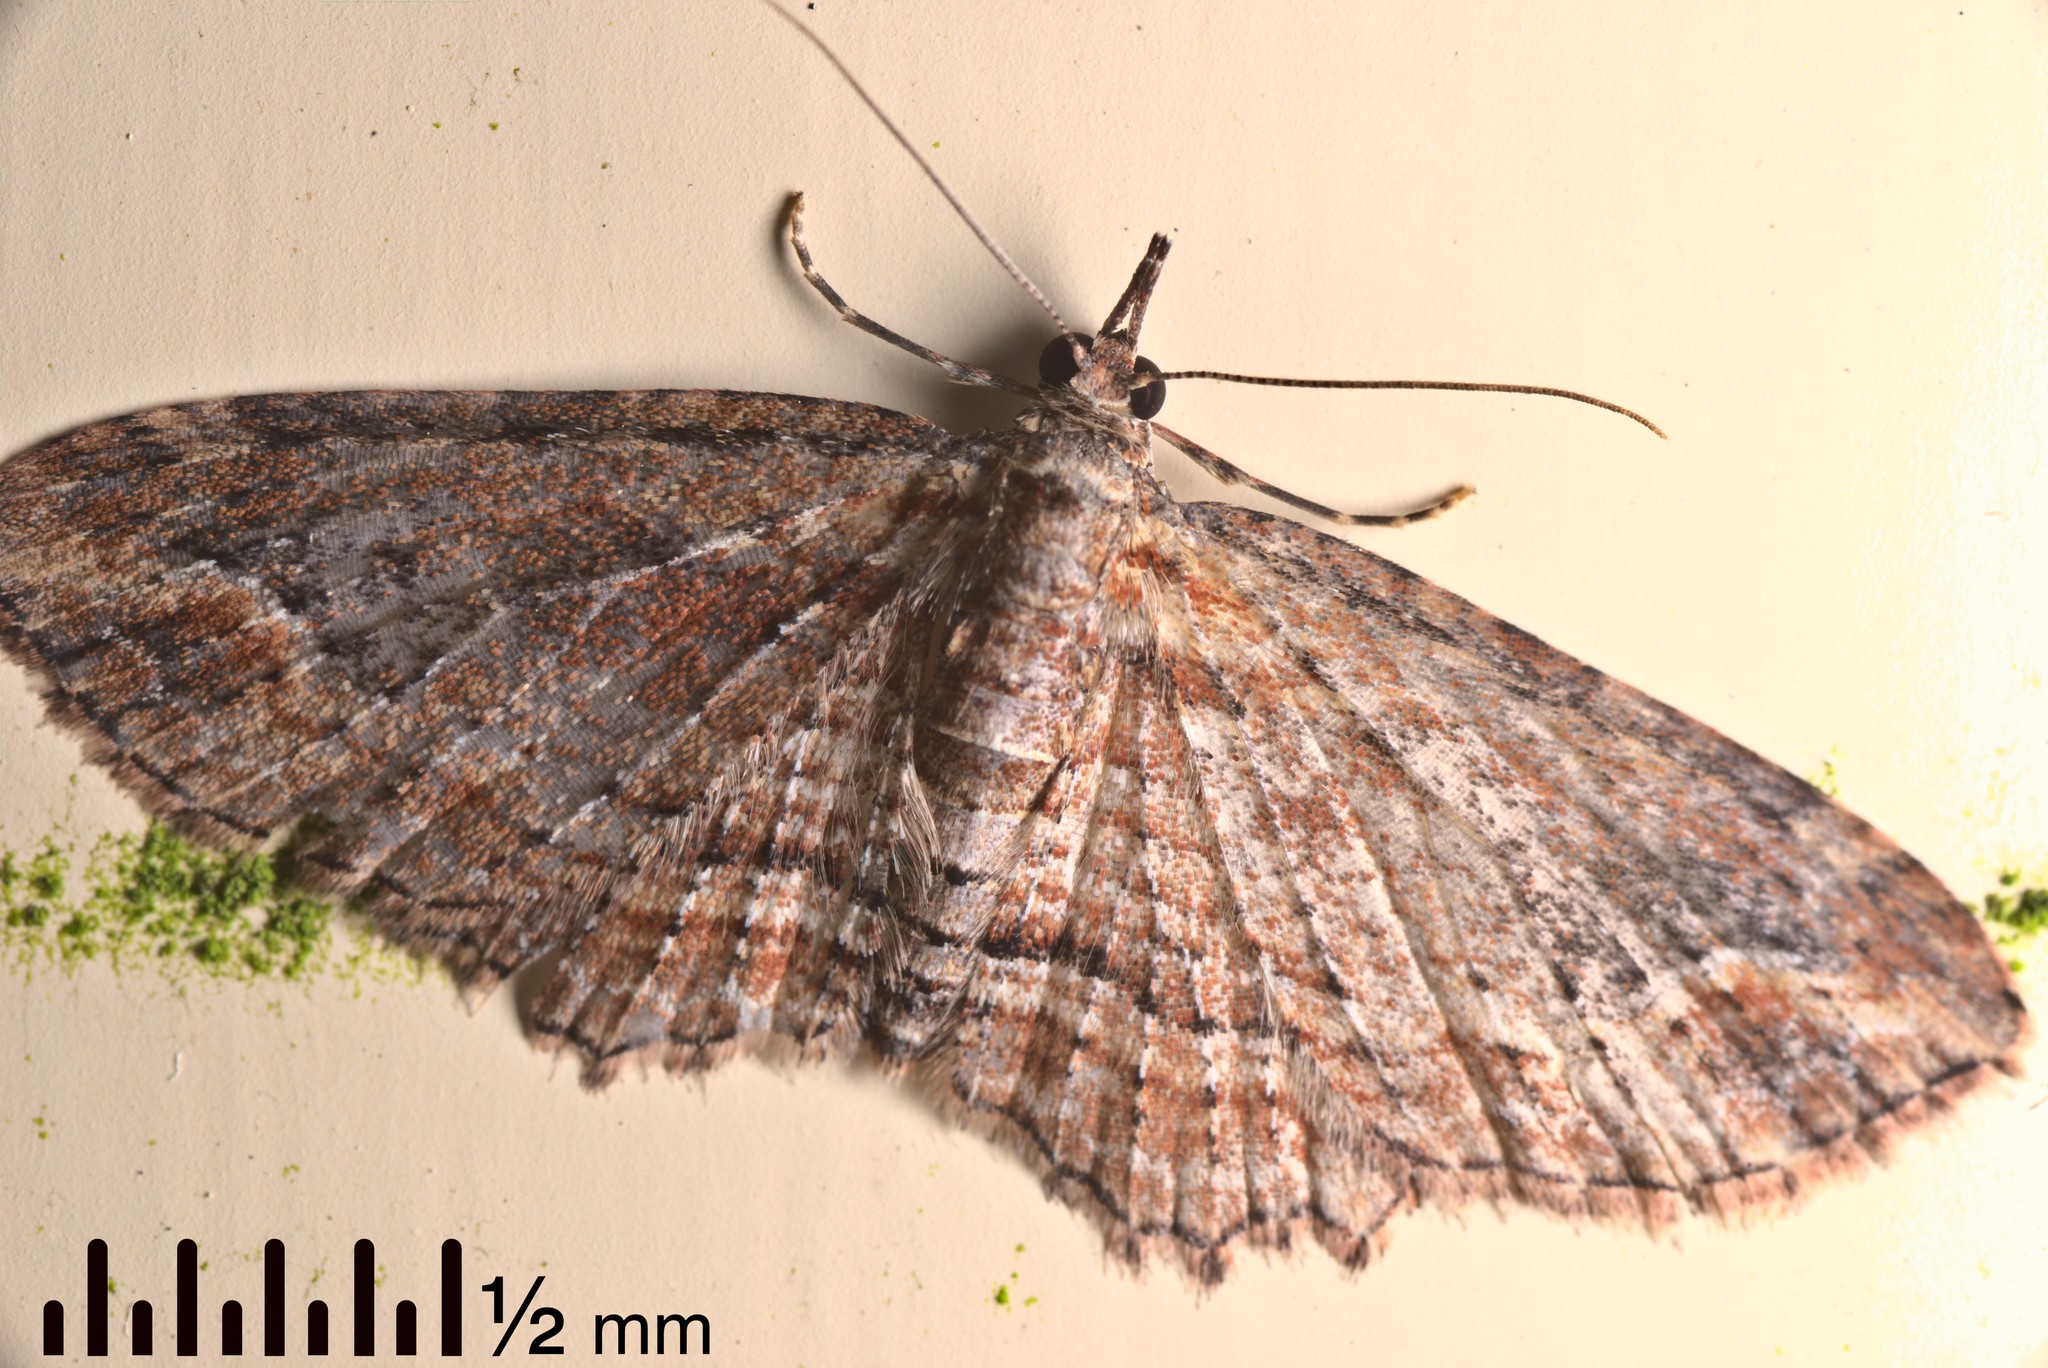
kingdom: Animalia
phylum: Arthropoda
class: Insecta
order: Lepidoptera
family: Geometridae
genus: Chloroclystis
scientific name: Chloroclystis filata
